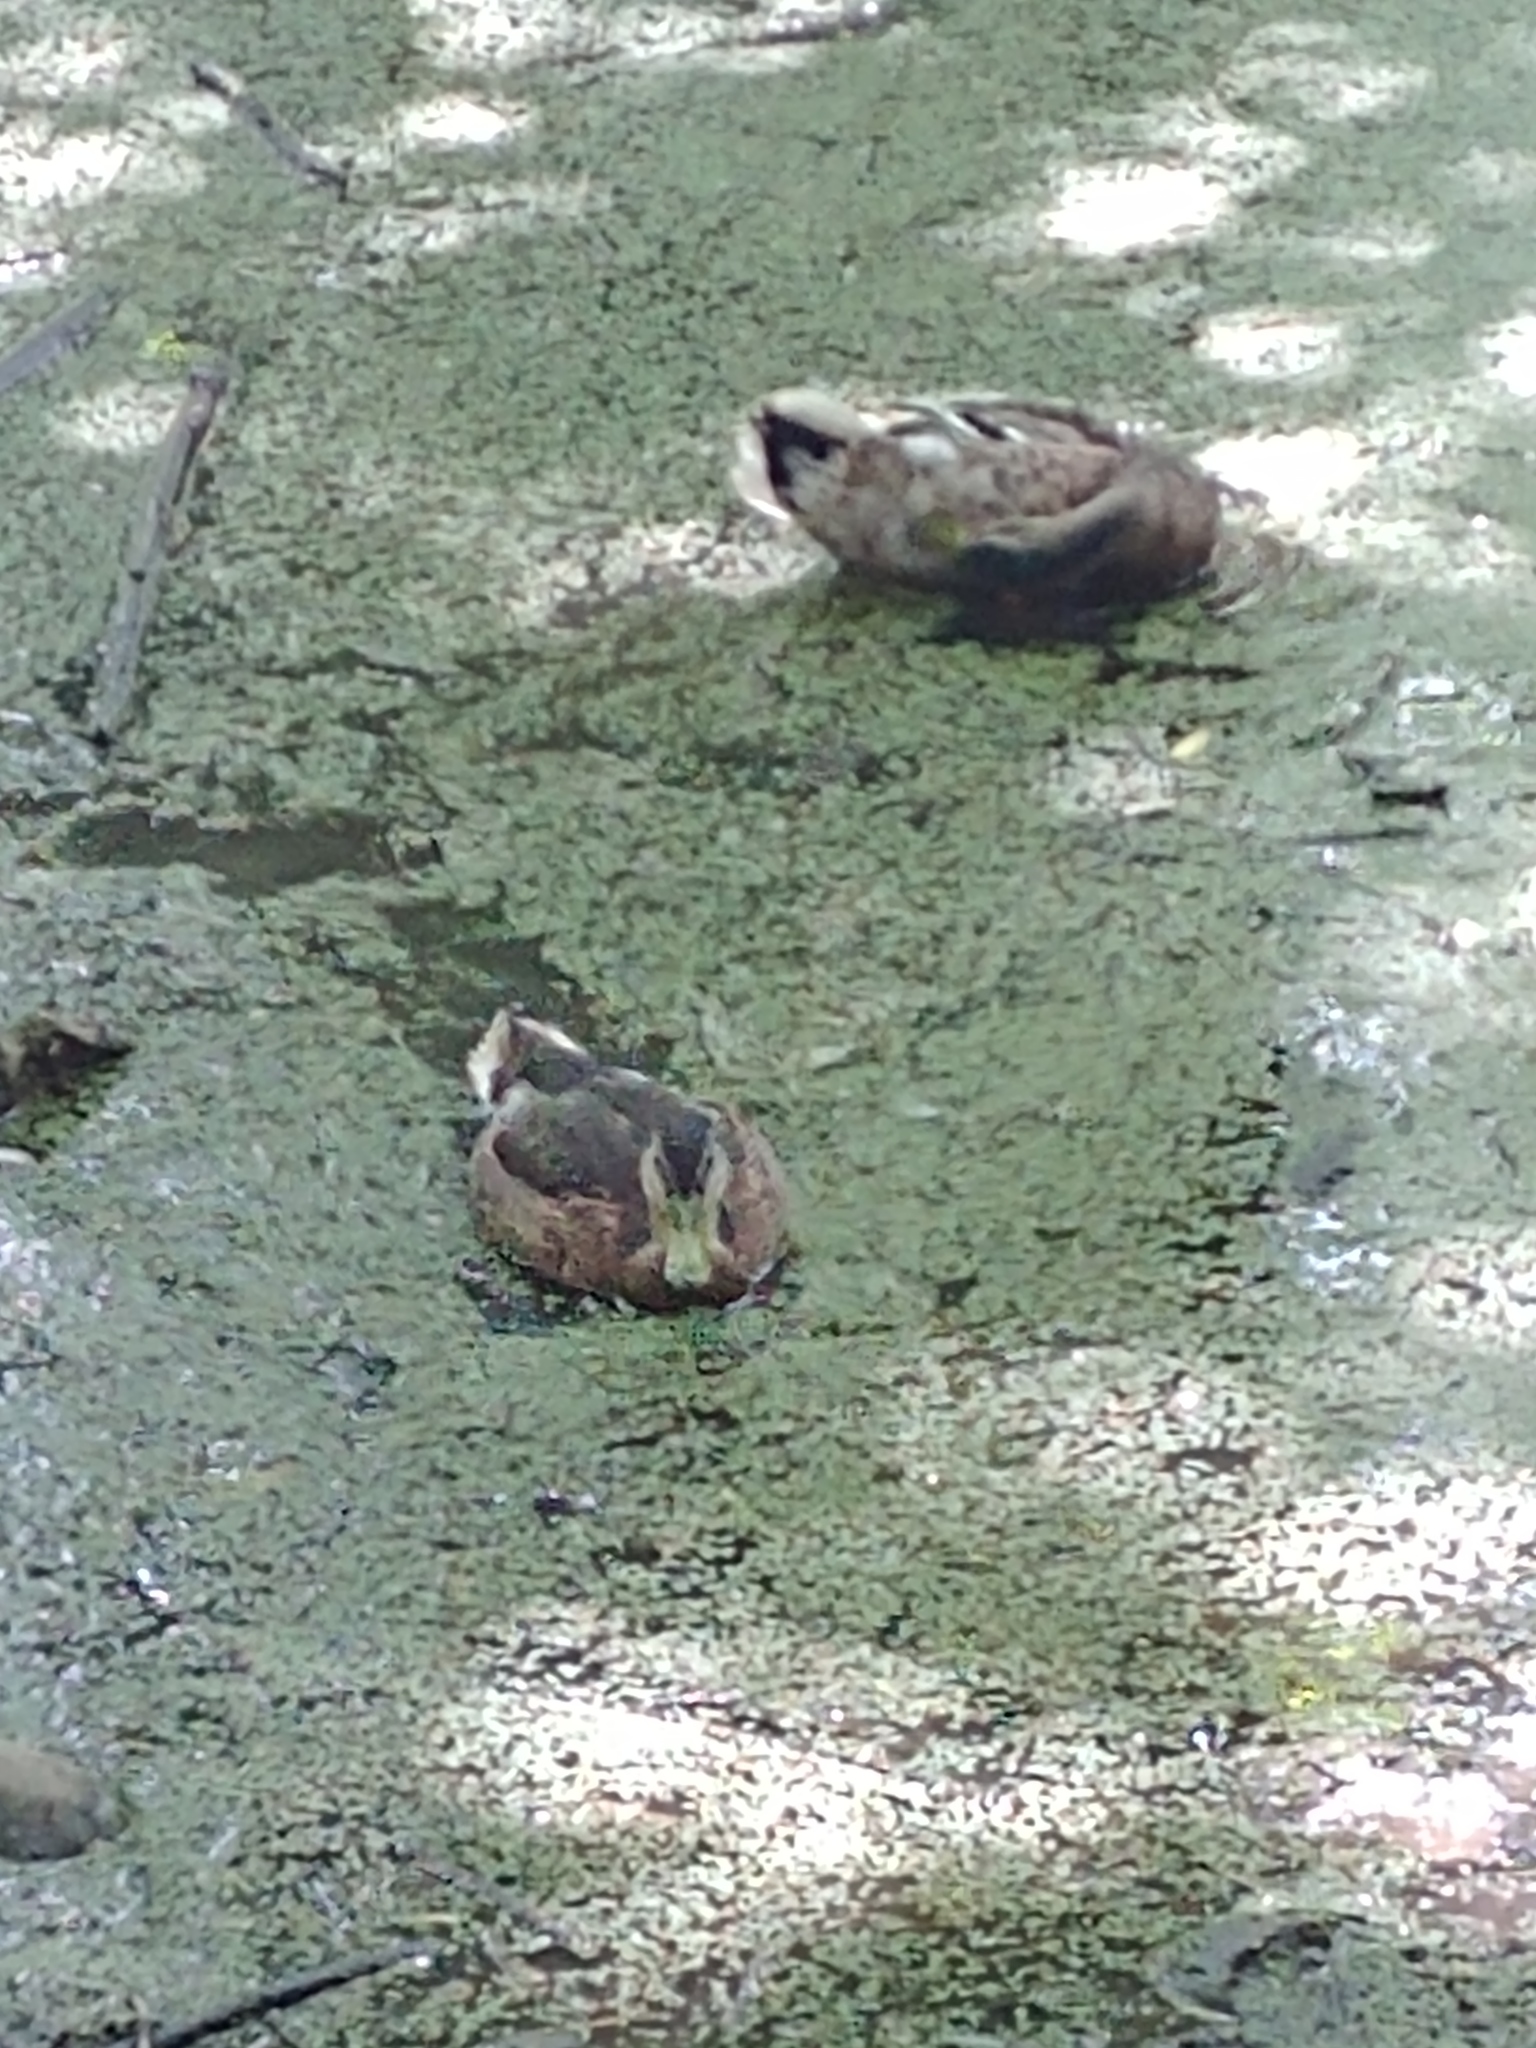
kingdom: Animalia
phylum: Chordata
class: Aves
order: Anseriformes
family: Anatidae
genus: Anas
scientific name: Anas platyrhynchos
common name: Mallard
